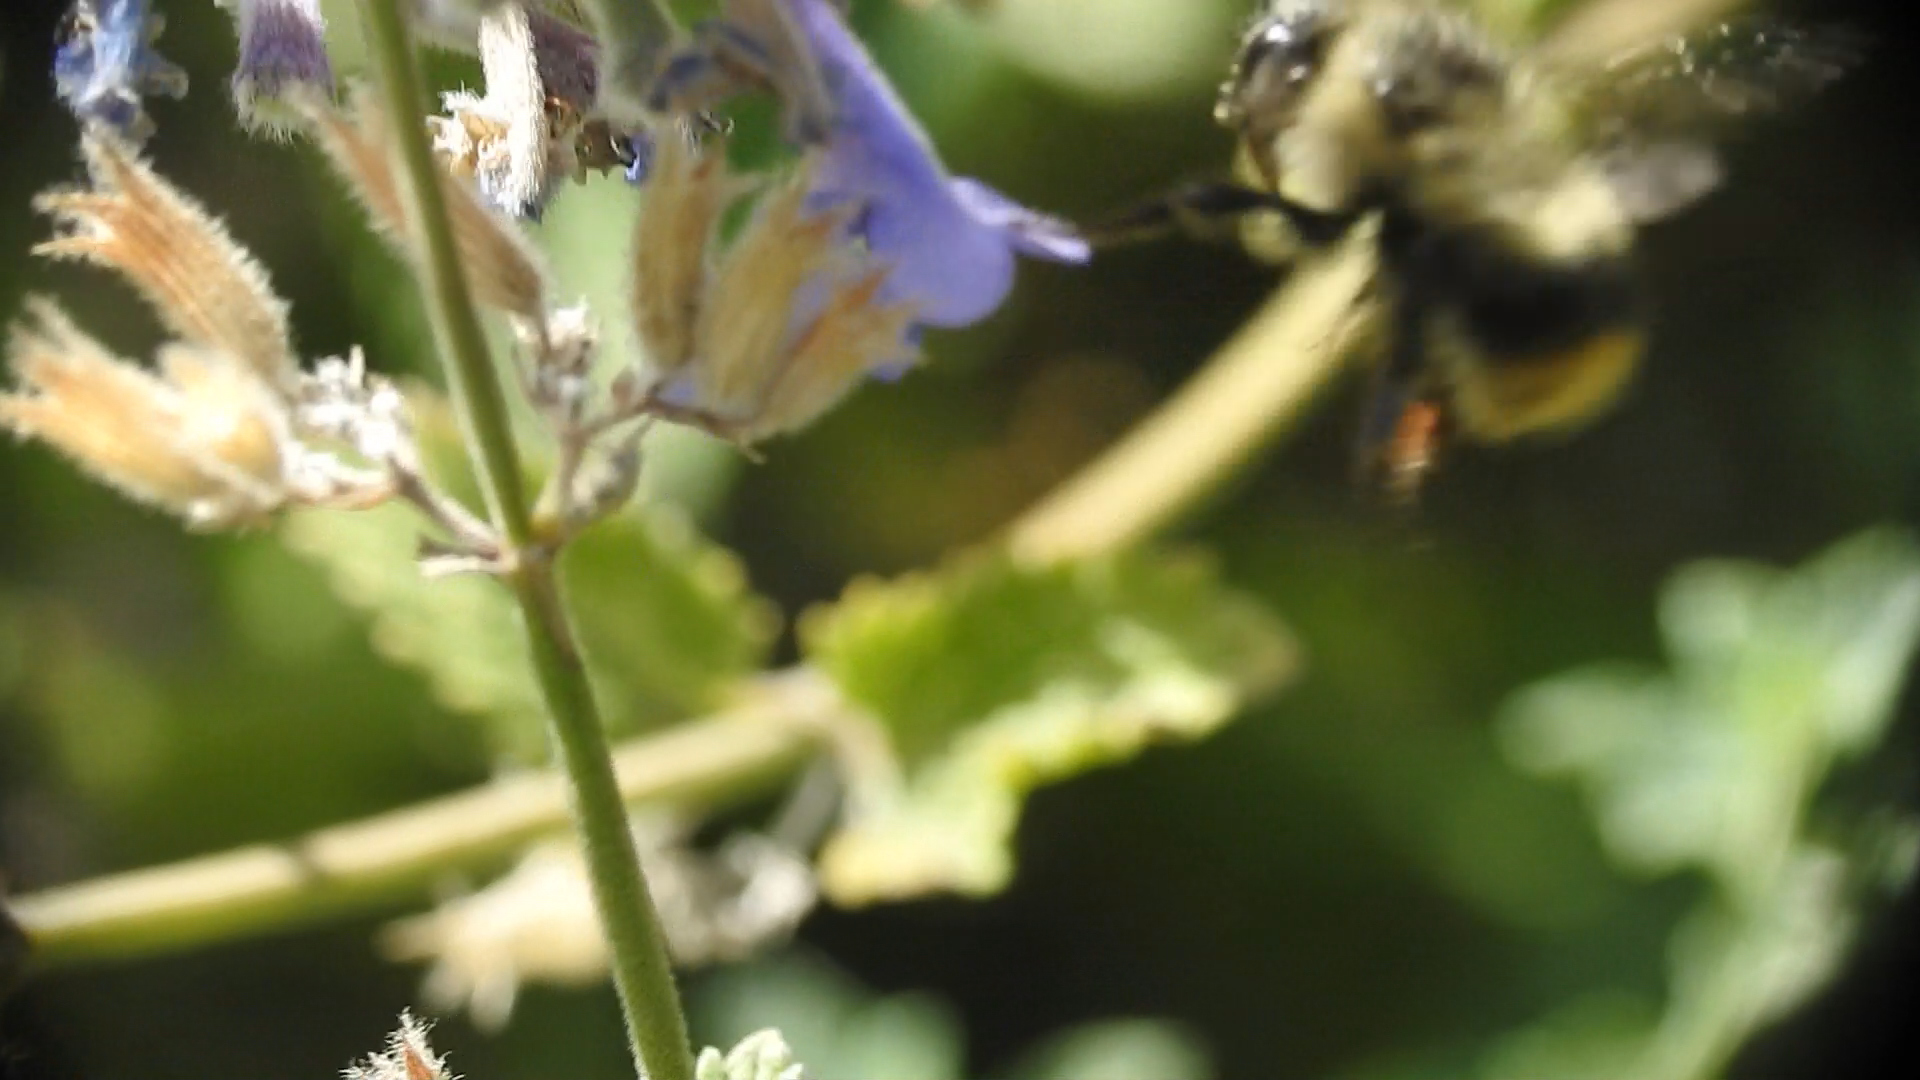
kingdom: Animalia
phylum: Arthropoda
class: Insecta
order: Hymenoptera
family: Apidae
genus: Bombus
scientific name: Bombus mixtus
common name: Fuzzy-horned bumble bee
